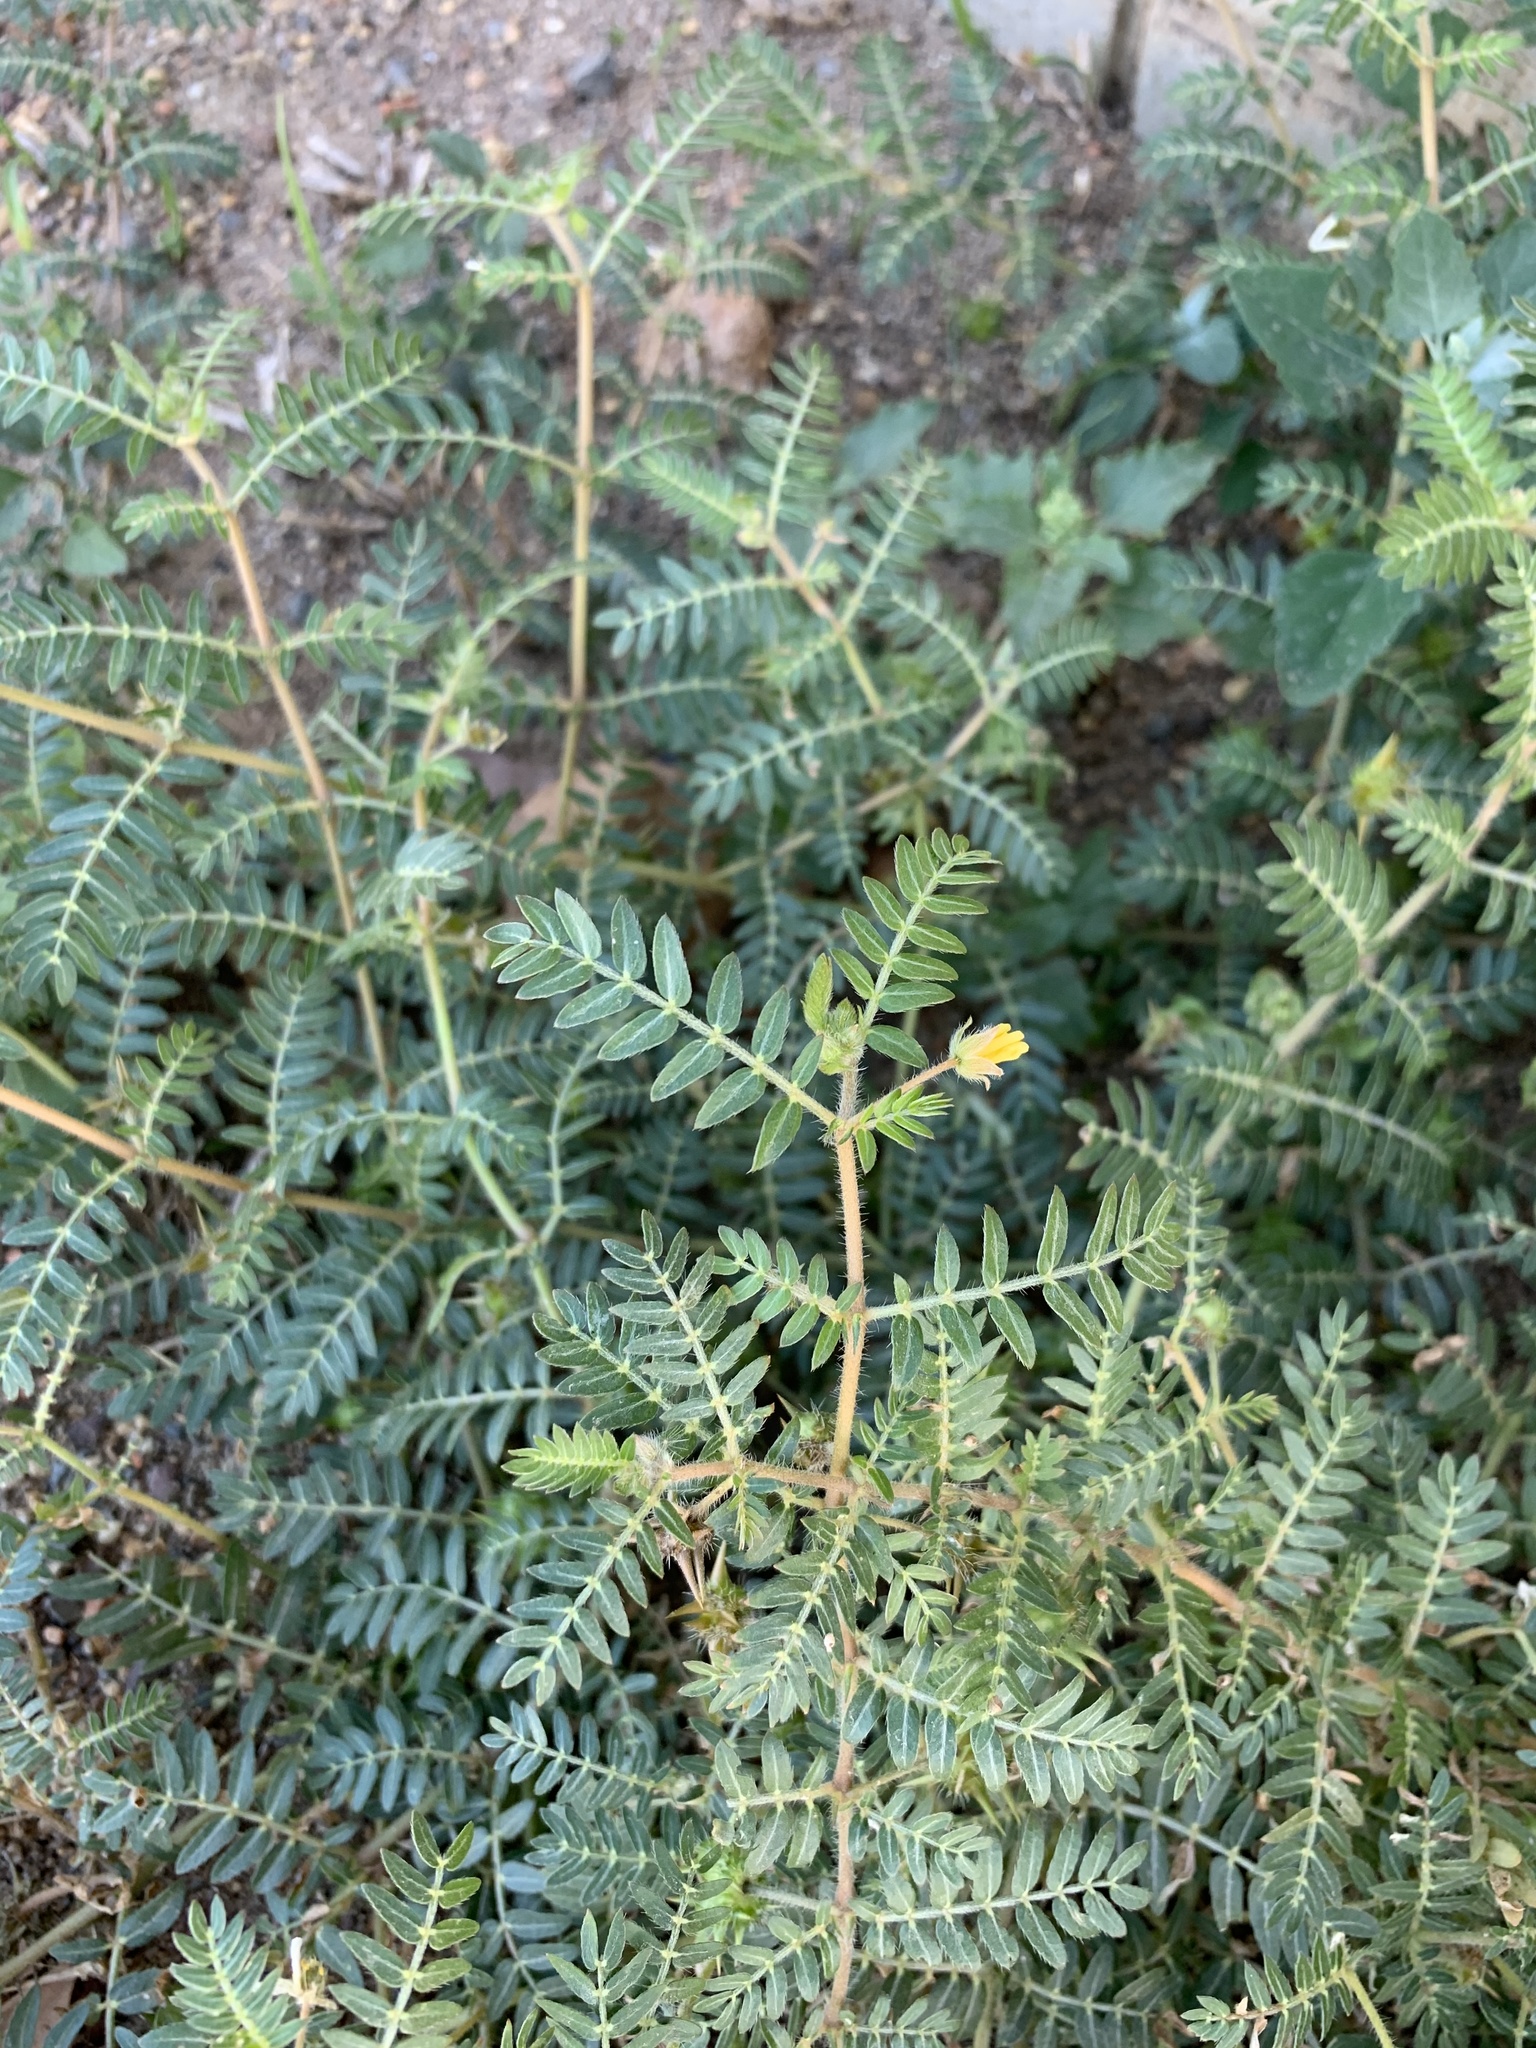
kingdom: Plantae
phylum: Tracheophyta
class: Magnoliopsida
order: Zygophyllales
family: Zygophyllaceae
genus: Tribulus
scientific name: Tribulus terrestris
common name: Puncturevine
